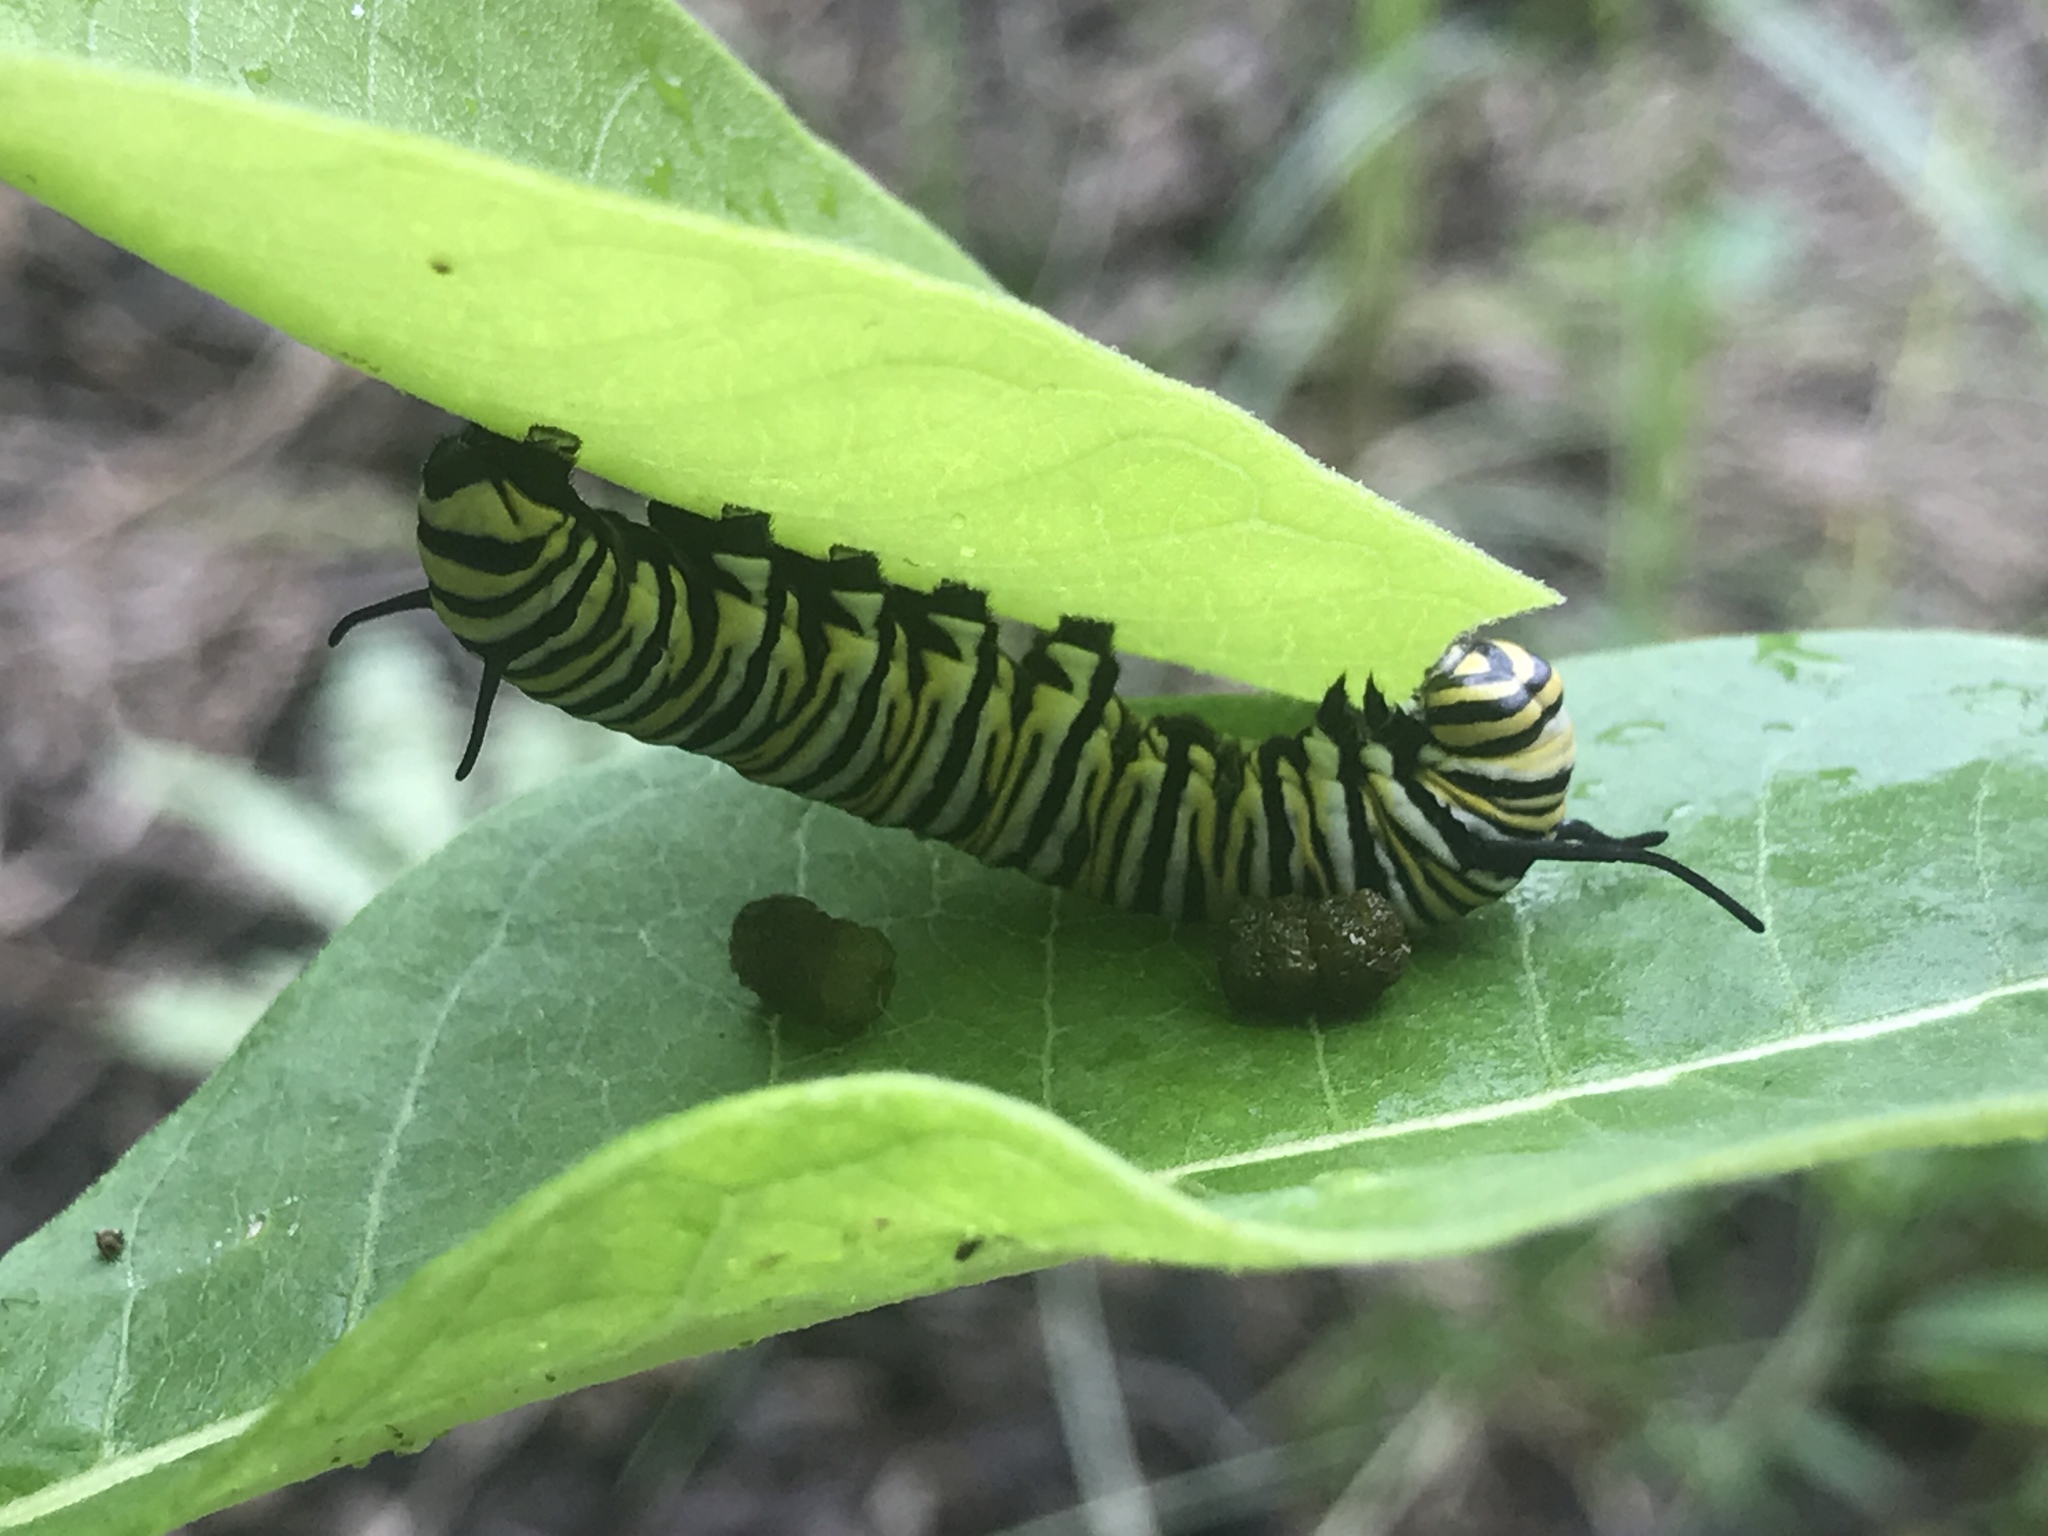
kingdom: Animalia
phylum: Arthropoda
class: Insecta
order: Lepidoptera
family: Nymphalidae
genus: Danaus
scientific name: Danaus plexippus
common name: Monarch
